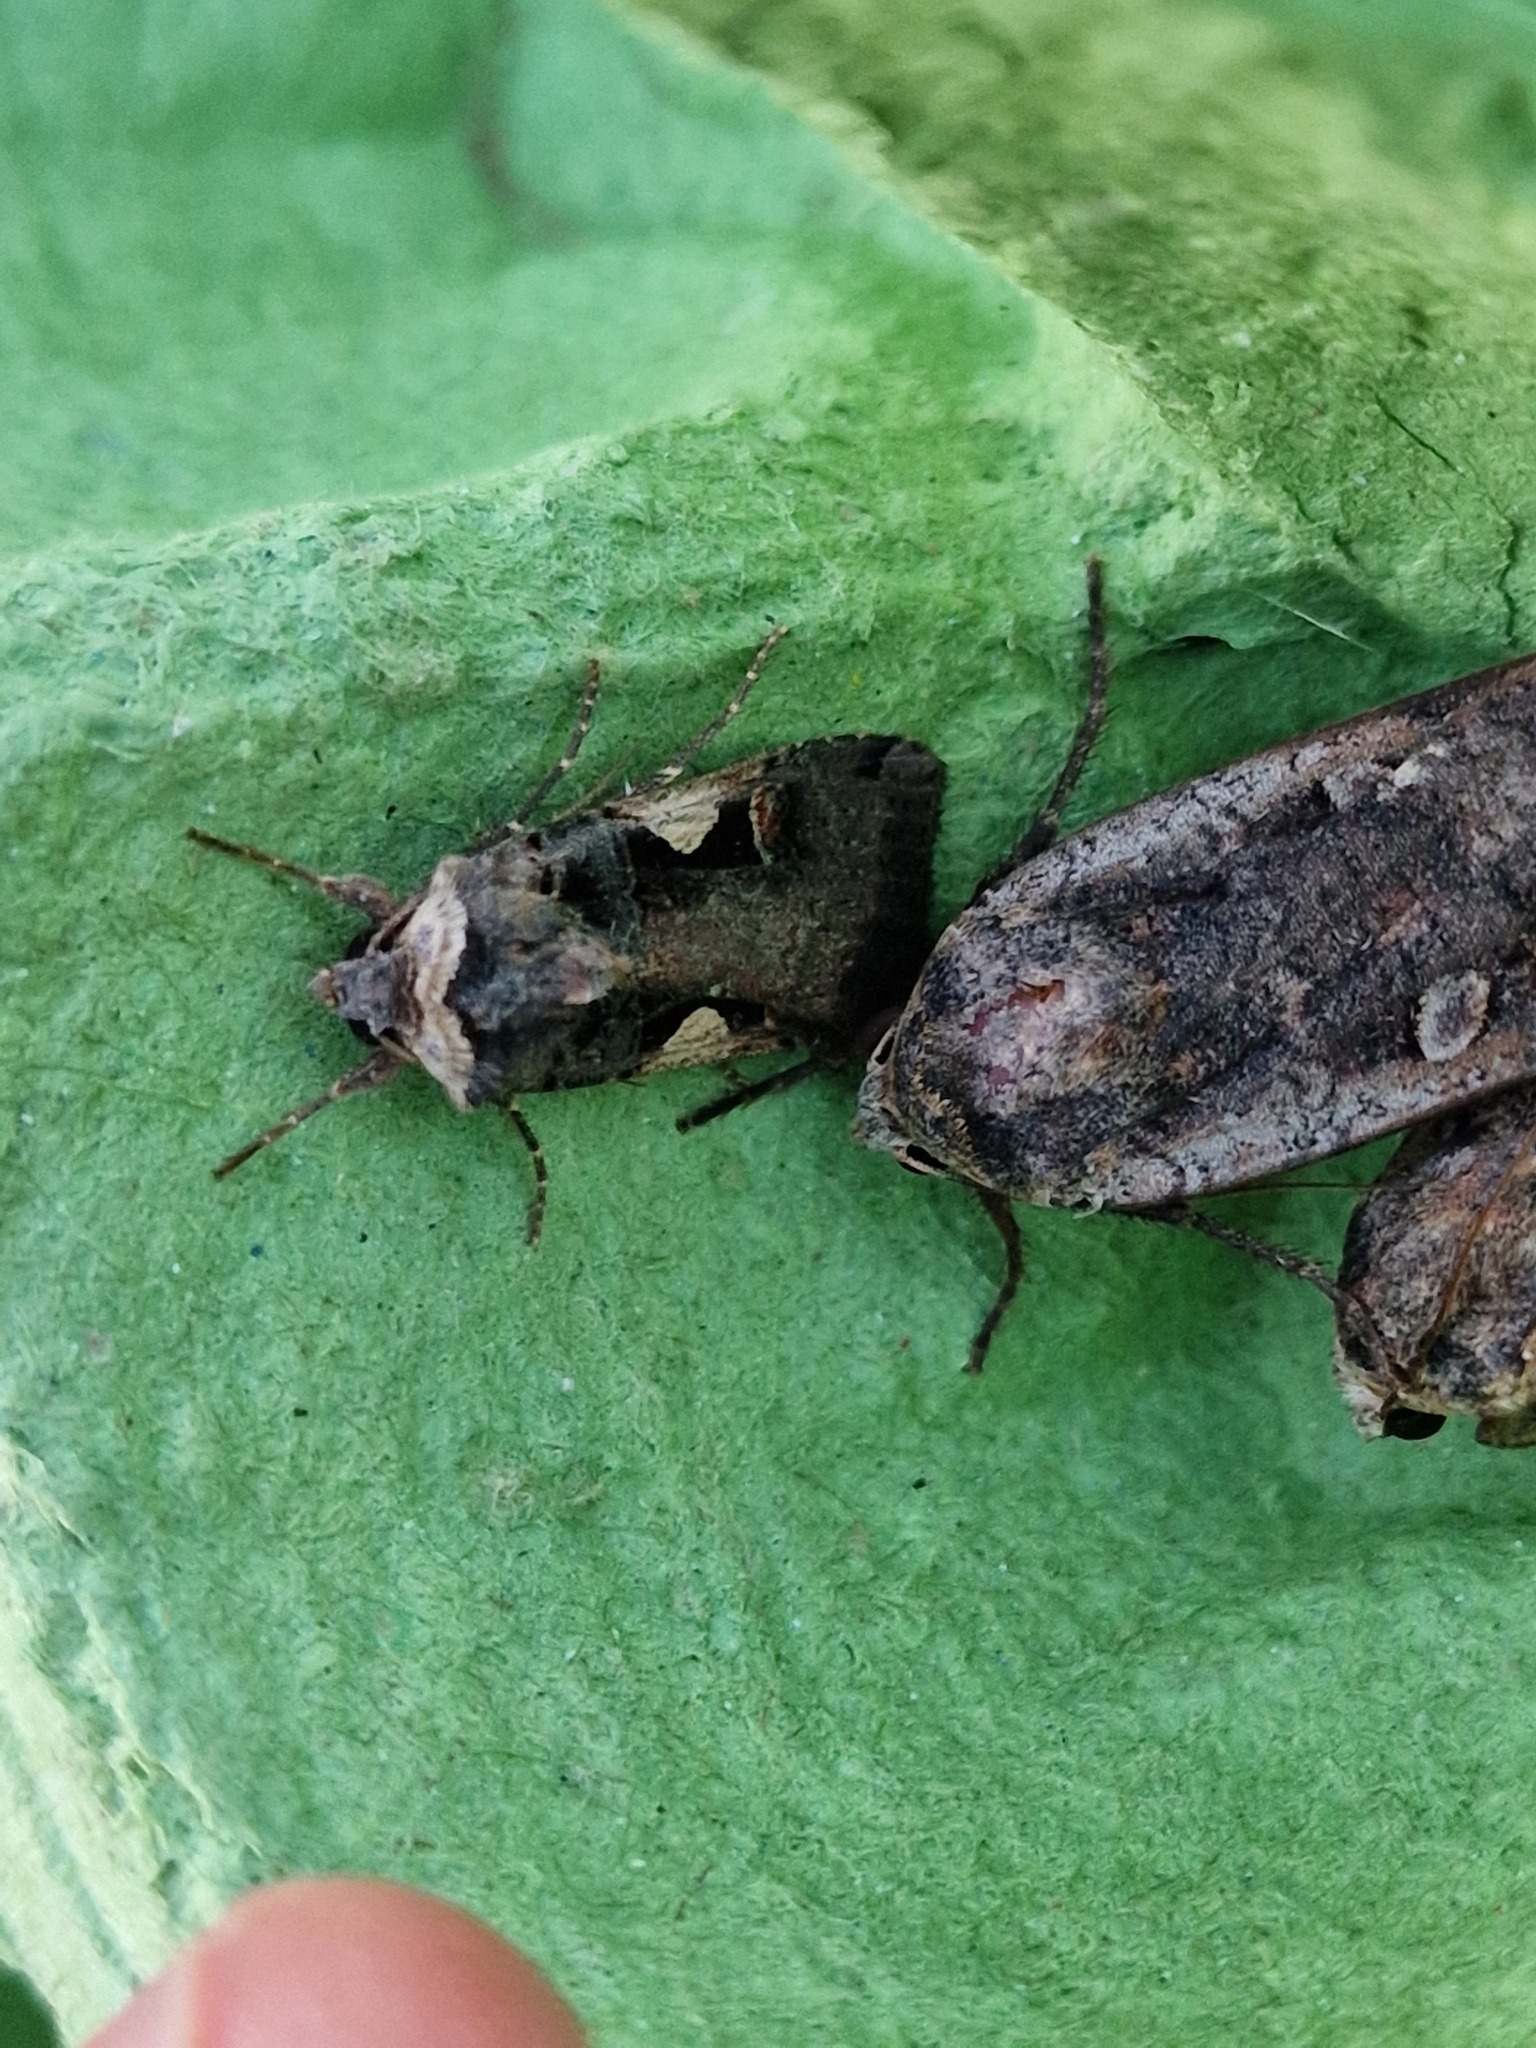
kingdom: Animalia
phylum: Arthropoda
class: Insecta
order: Lepidoptera
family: Noctuidae
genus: Xestia
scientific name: Xestia c-nigrum
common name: Setaceous hebrew character
